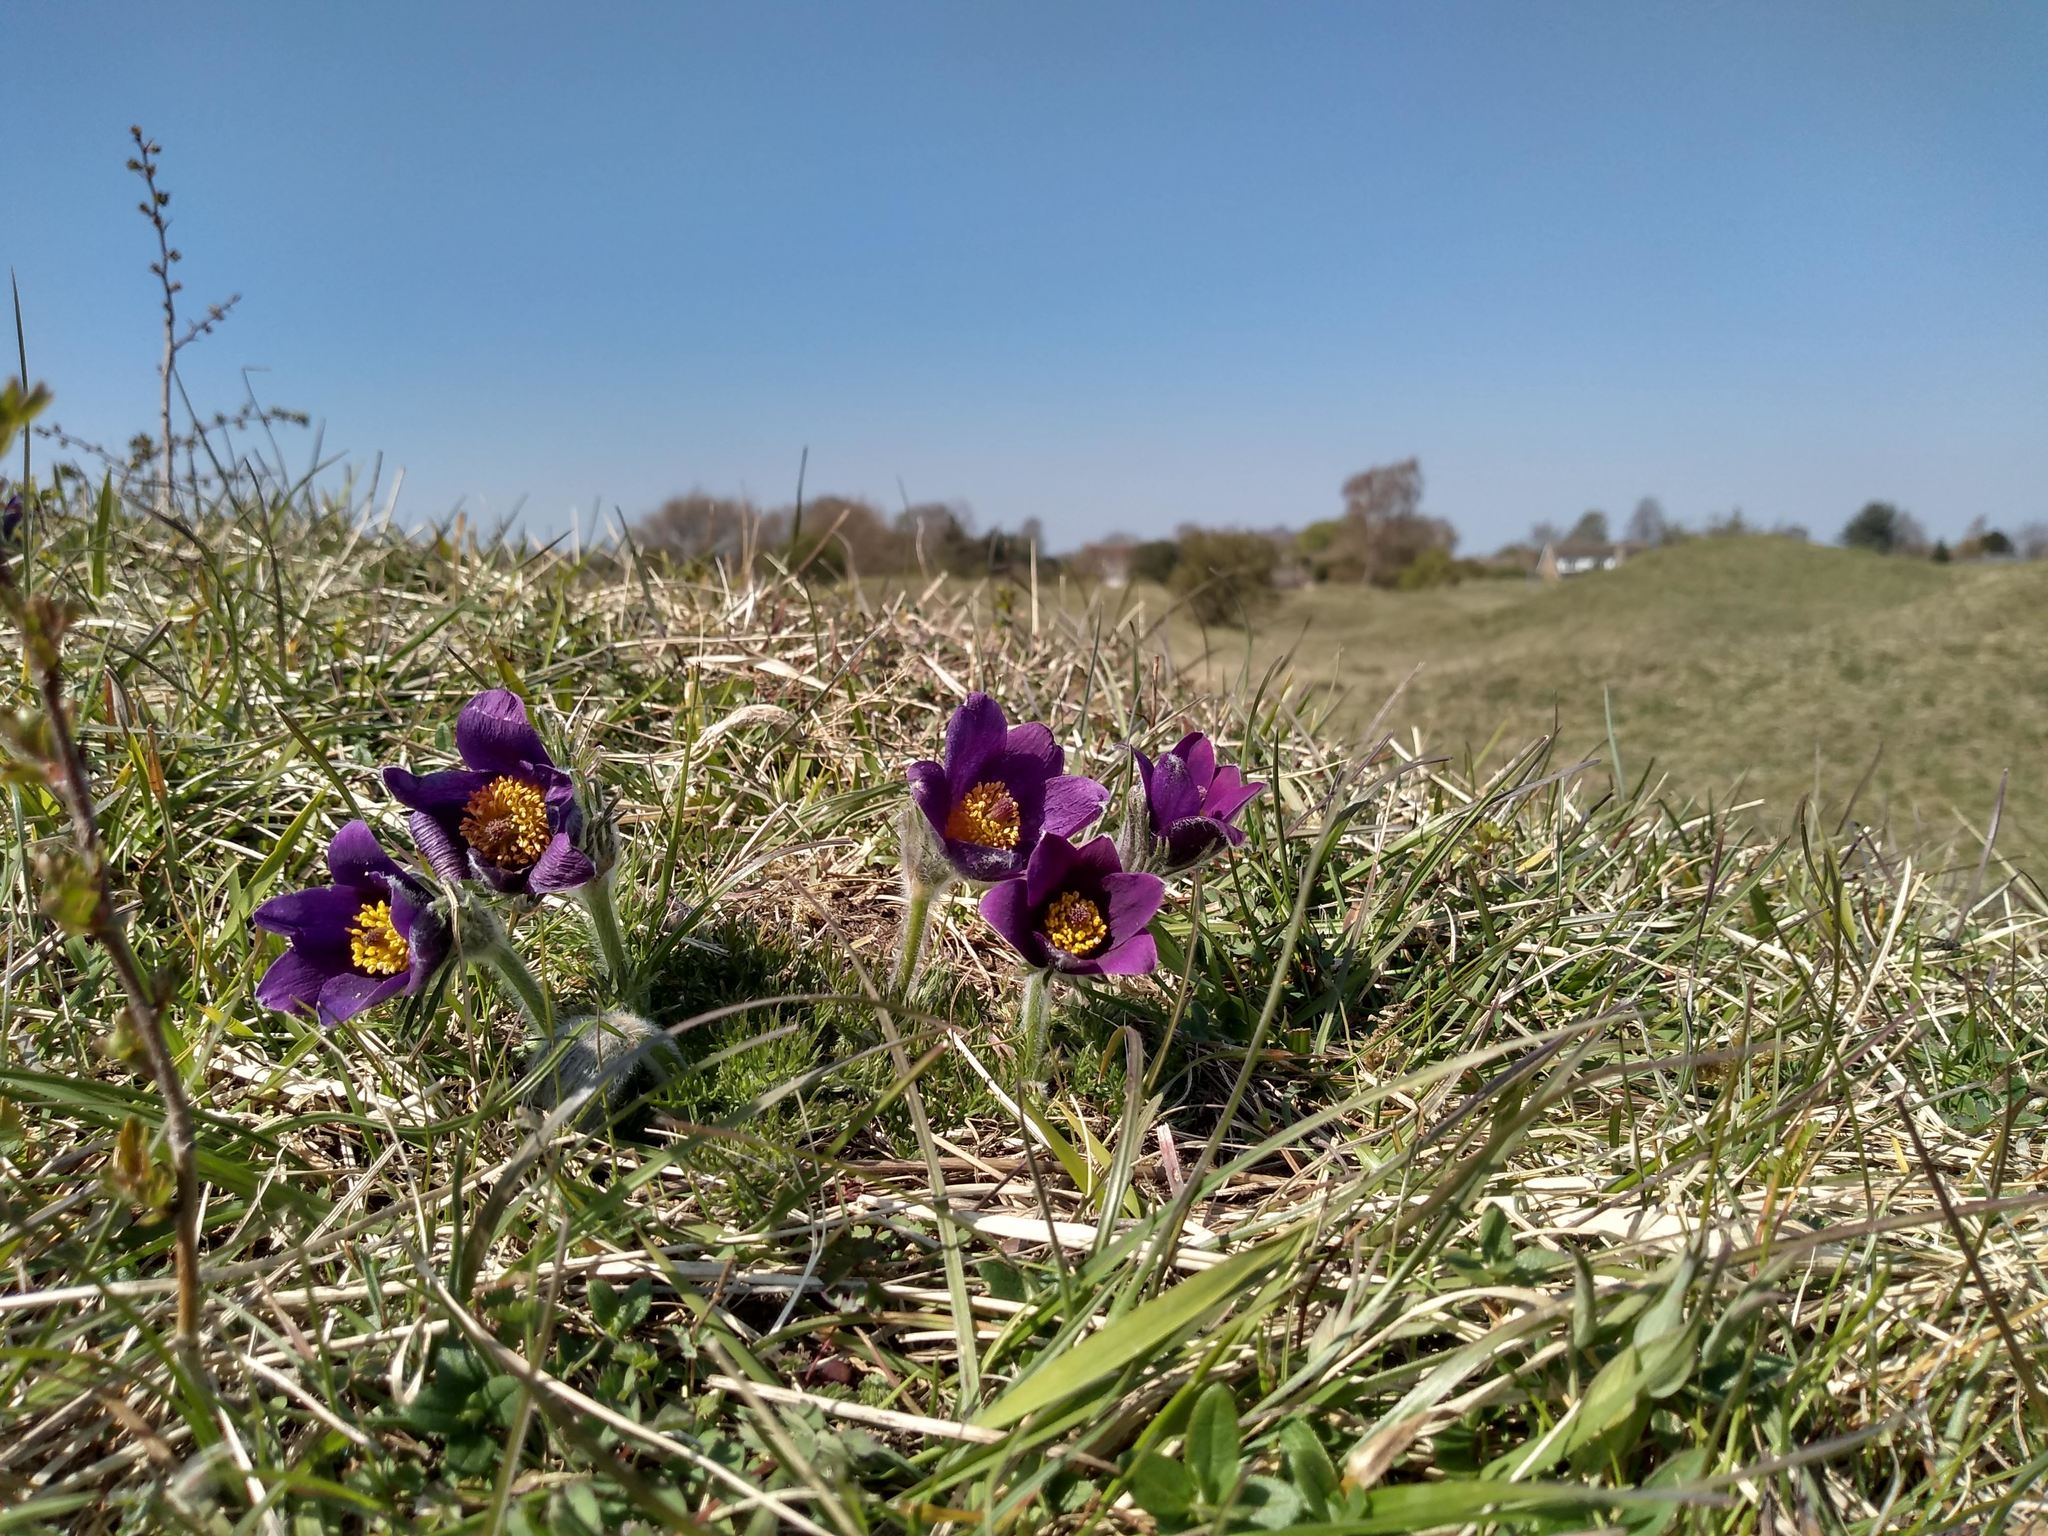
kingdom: Plantae
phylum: Tracheophyta
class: Magnoliopsida
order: Ranunculales
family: Ranunculaceae
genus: Pulsatilla
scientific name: Pulsatilla vulgaris
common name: Pasqueflower
